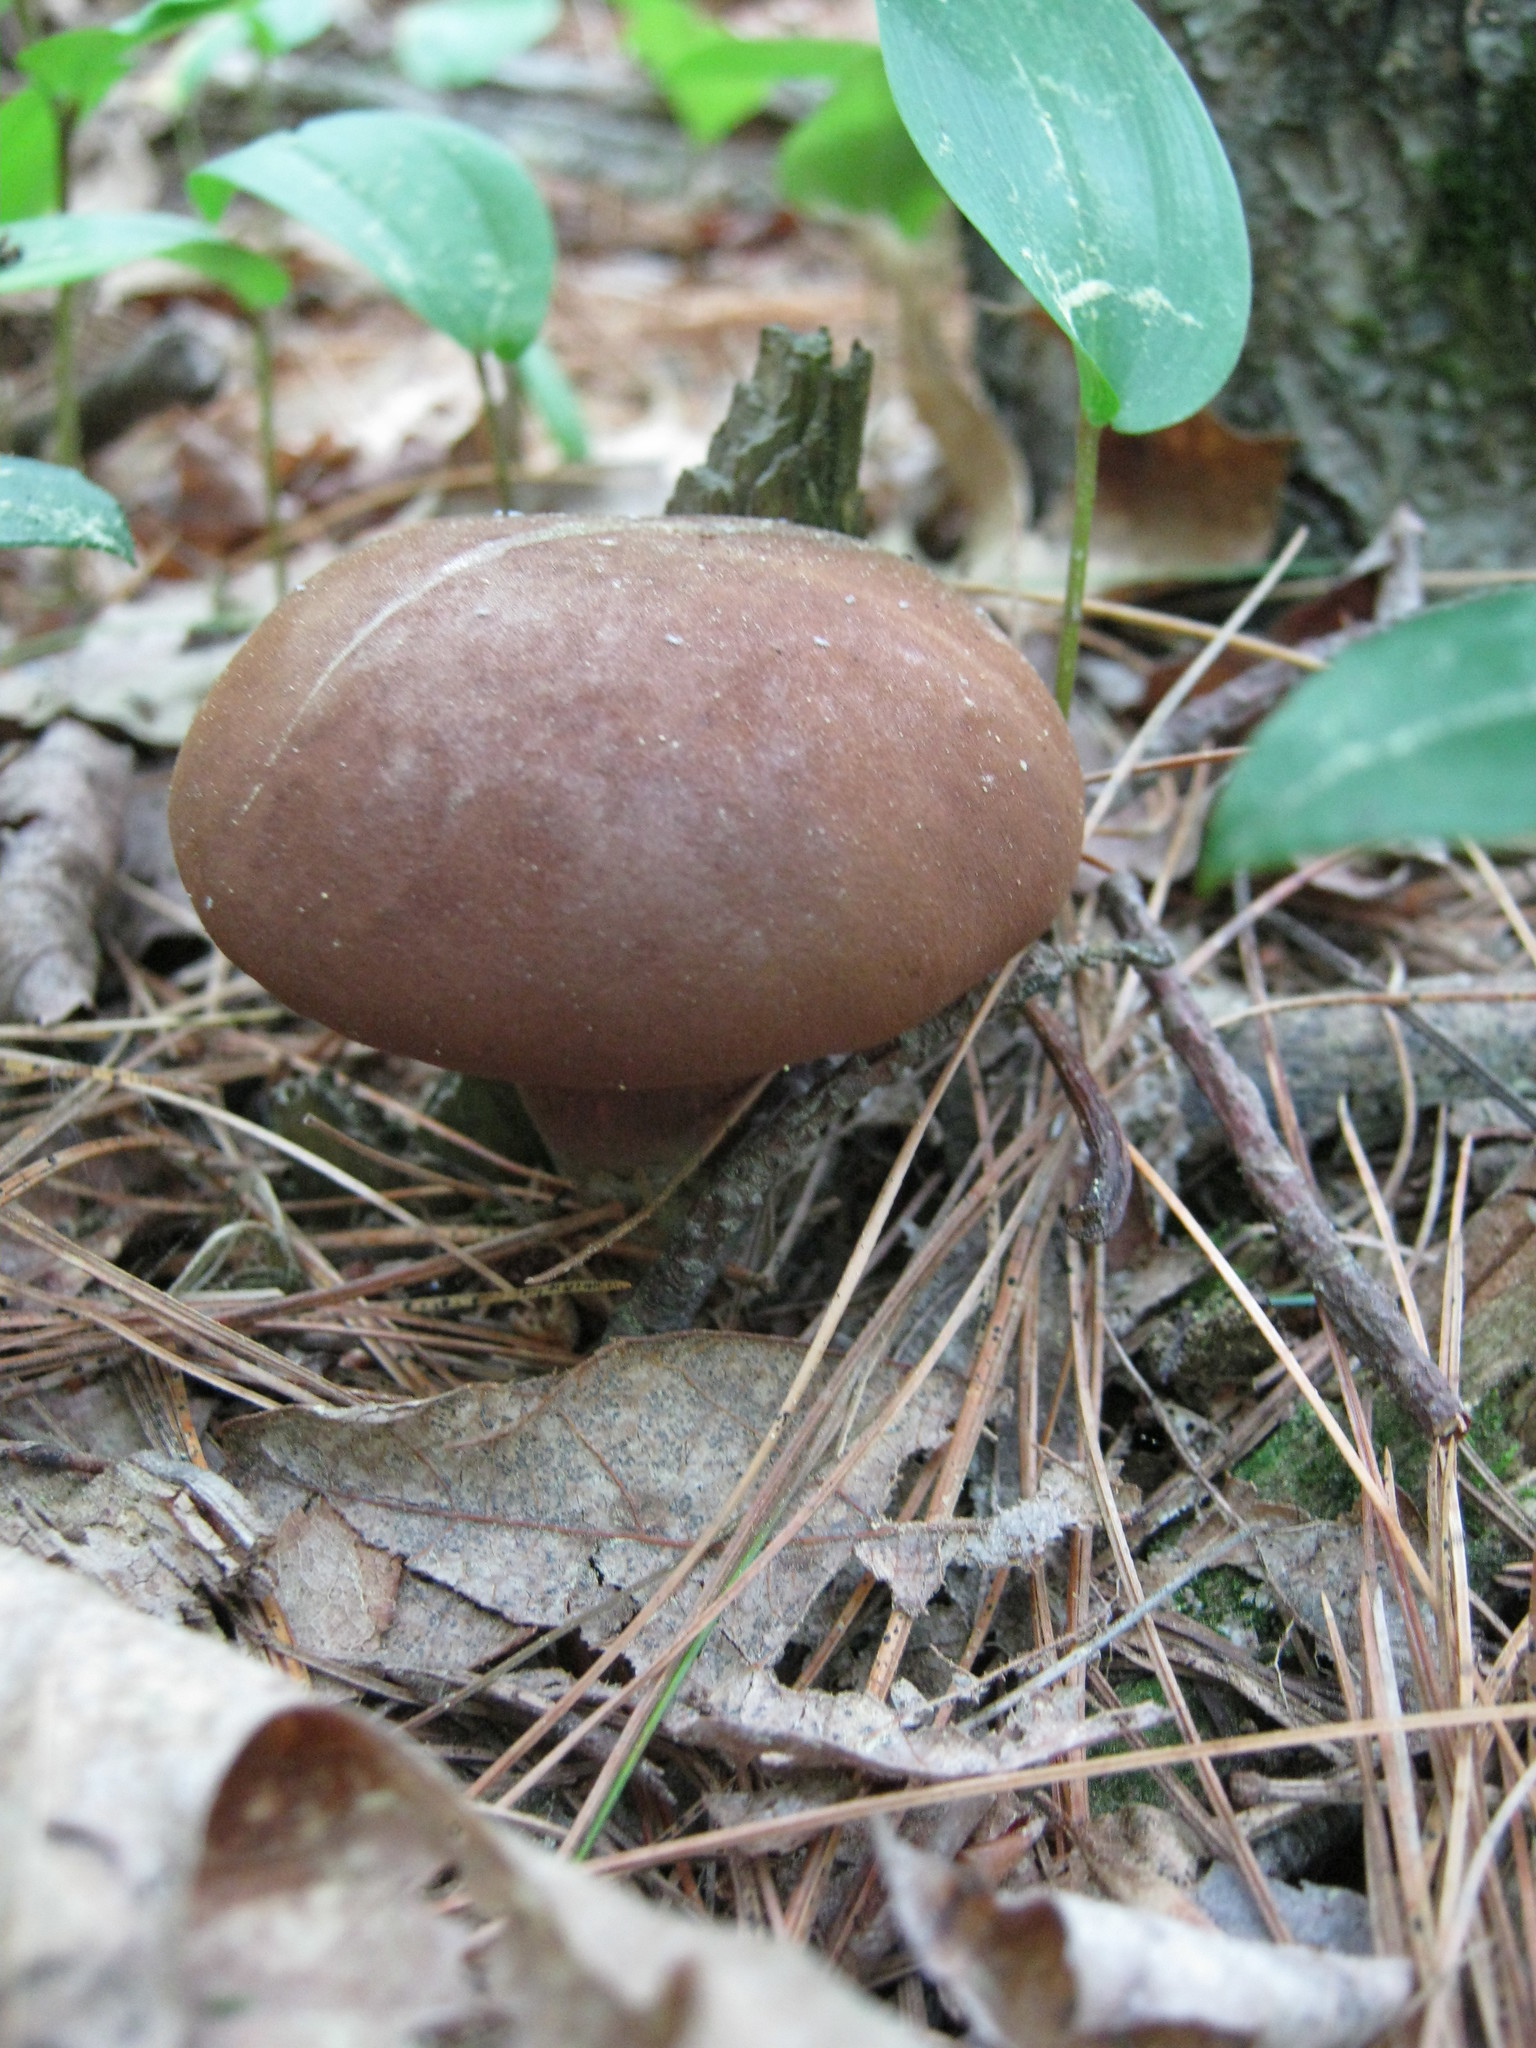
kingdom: Fungi
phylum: Basidiomycota
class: Agaricomycetes
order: Boletales
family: Boletaceae
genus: Imleria
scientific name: Imleria badia
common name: Bay bolete
